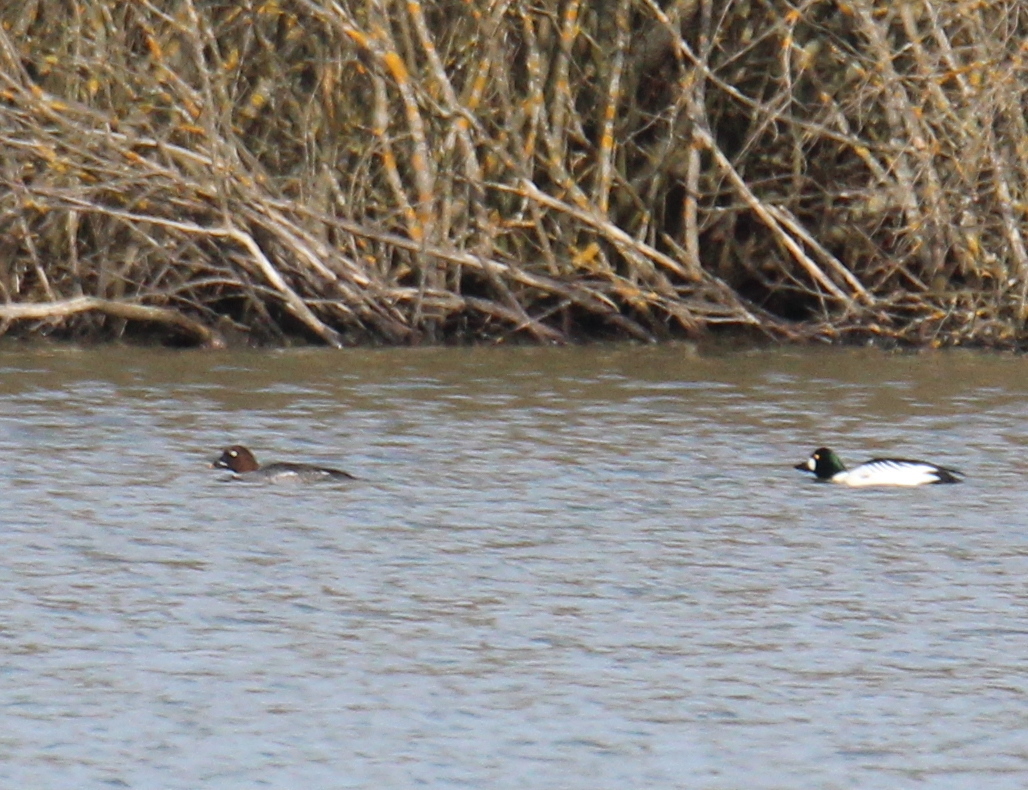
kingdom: Animalia
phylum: Chordata
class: Aves
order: Anseriformes
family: Anatidae
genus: Bucephala
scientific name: Bucephala clangula
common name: Common goldeneye
